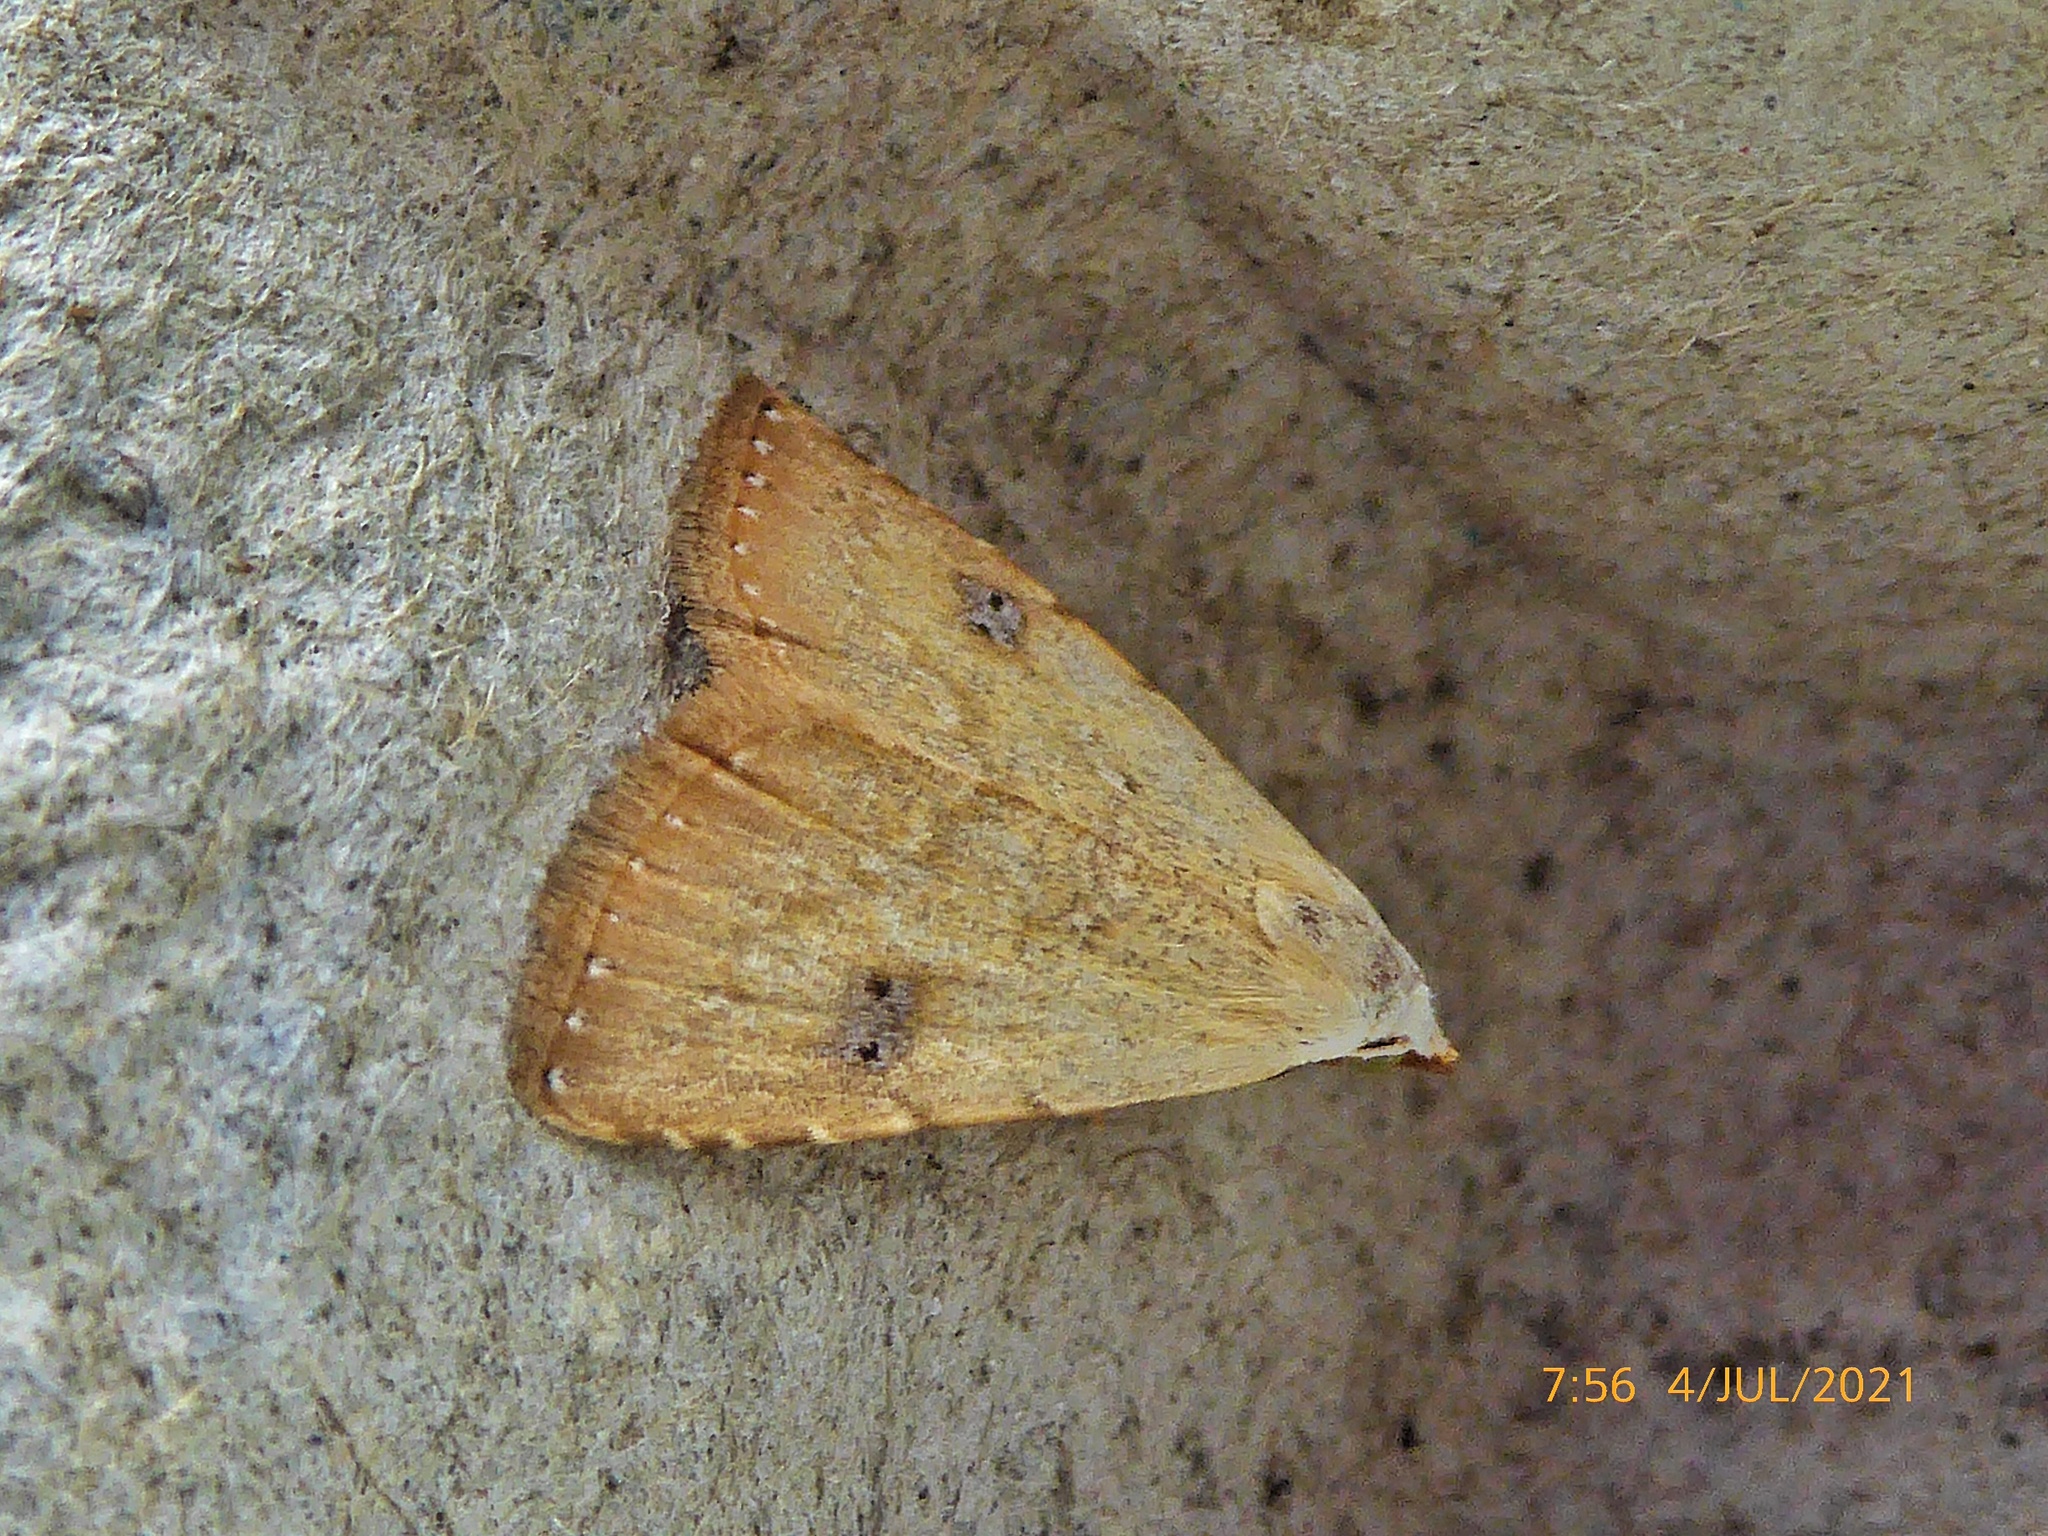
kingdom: Animalia
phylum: Arthropoda
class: Insecta
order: Lepidoptera
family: Erebidae
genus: Rivula
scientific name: Rivula sericealis
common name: Straw dot
